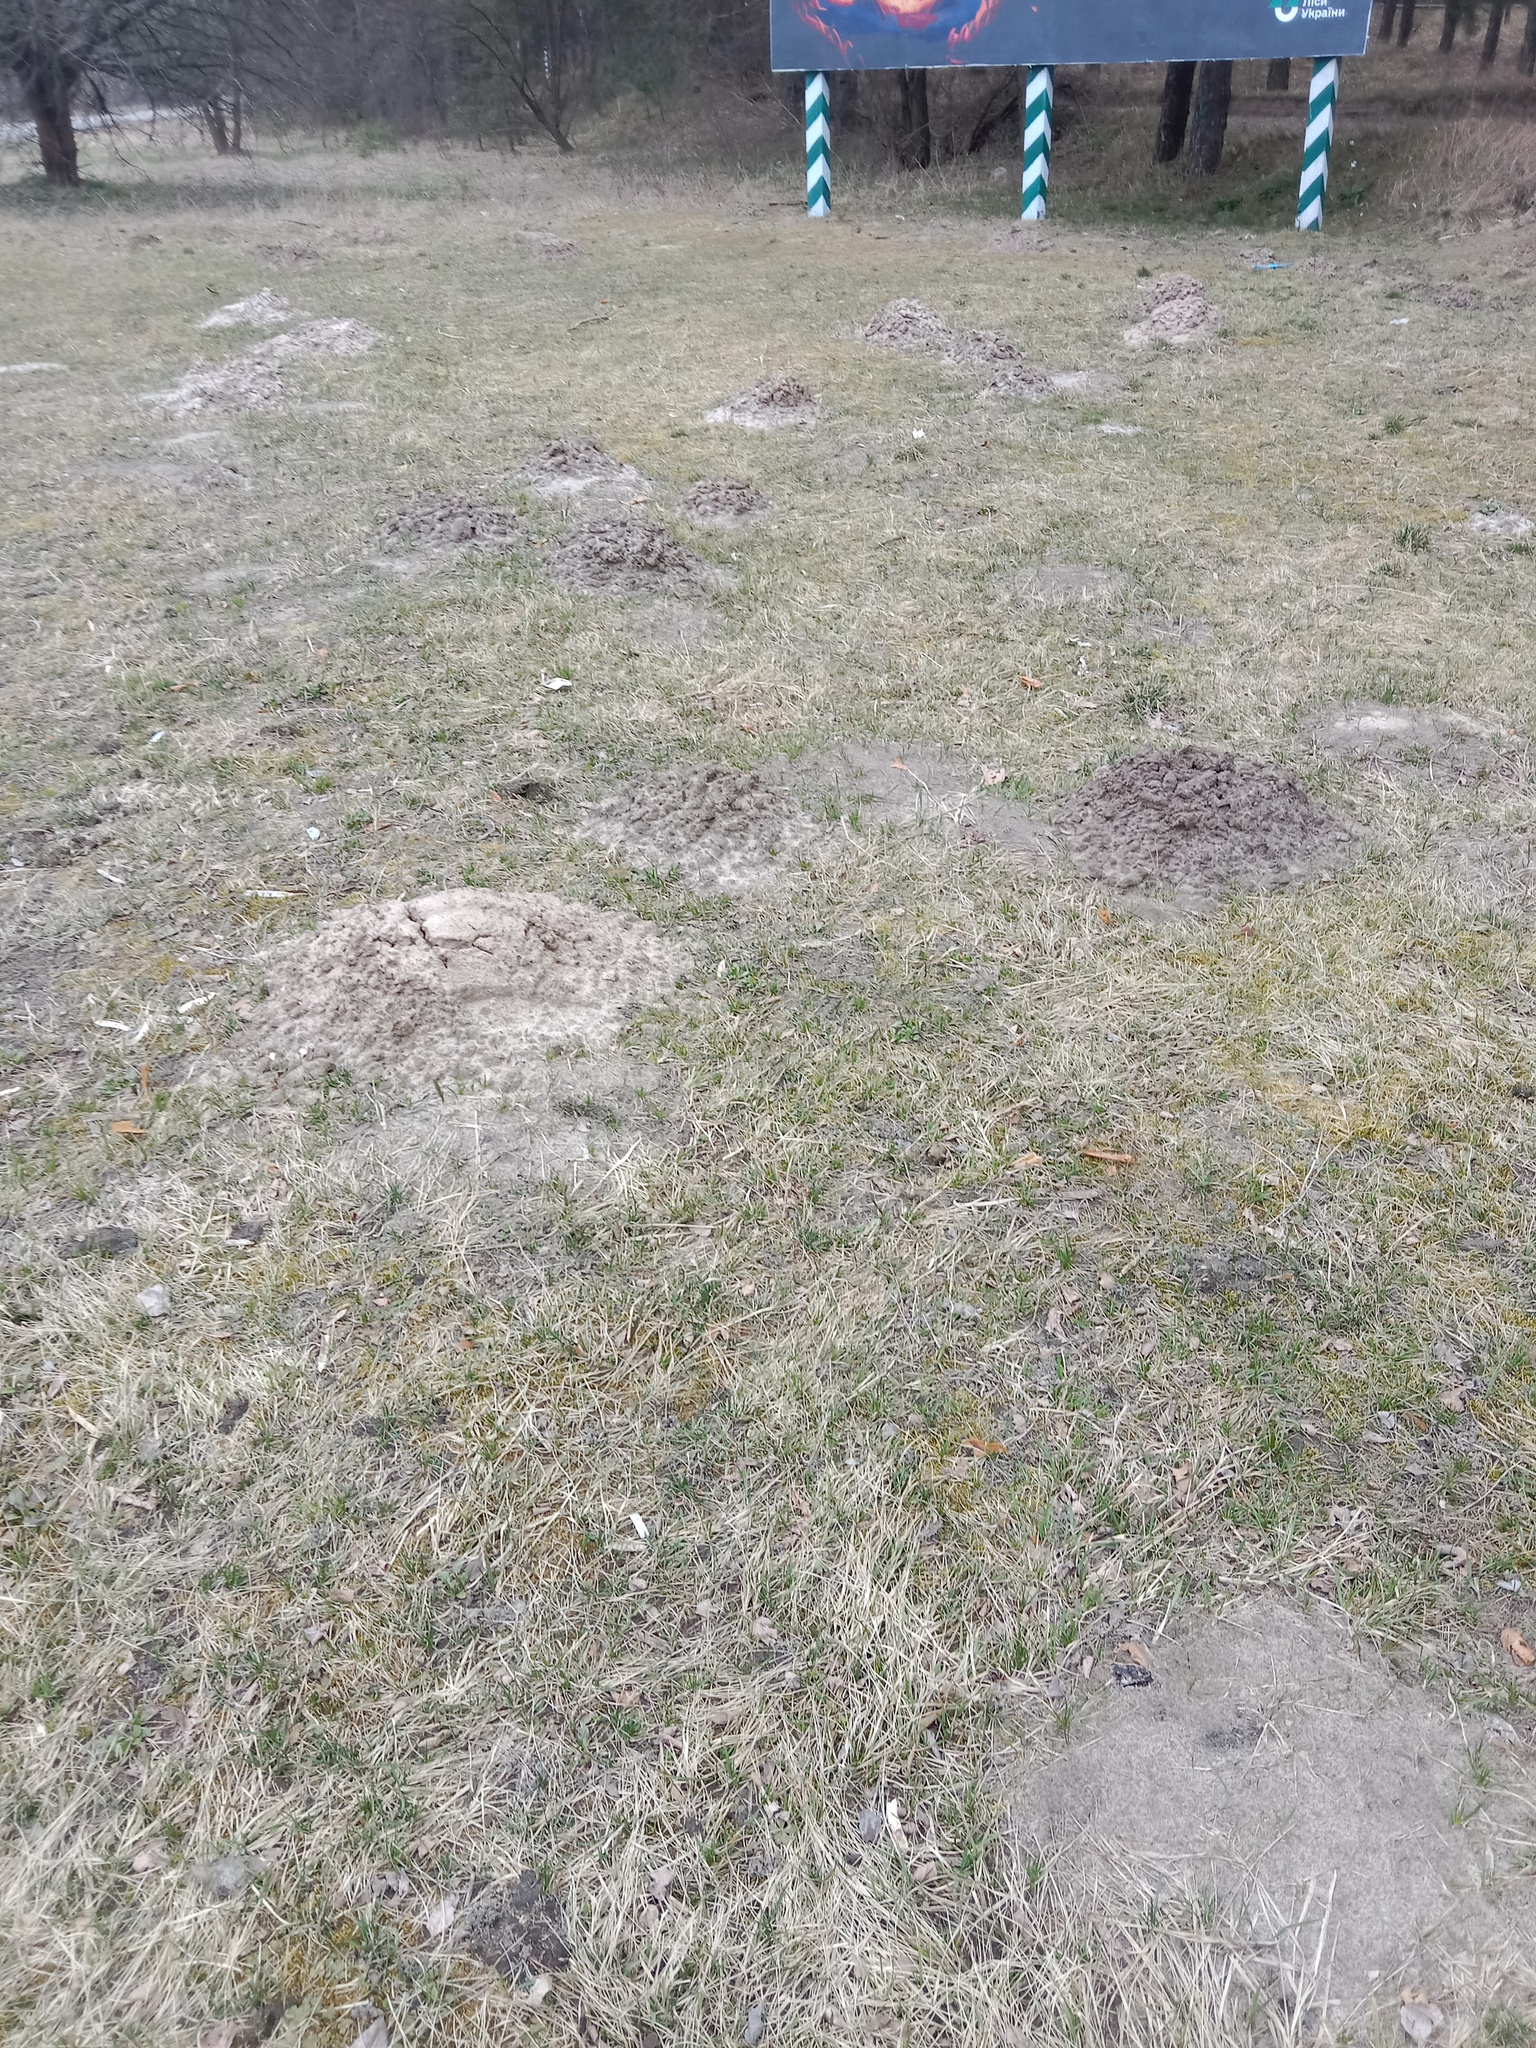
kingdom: Animalia
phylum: Chordata
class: Mammalia
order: Soricomorpha
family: Talpidae
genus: Talpa
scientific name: Talpa europaea
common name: European mole
